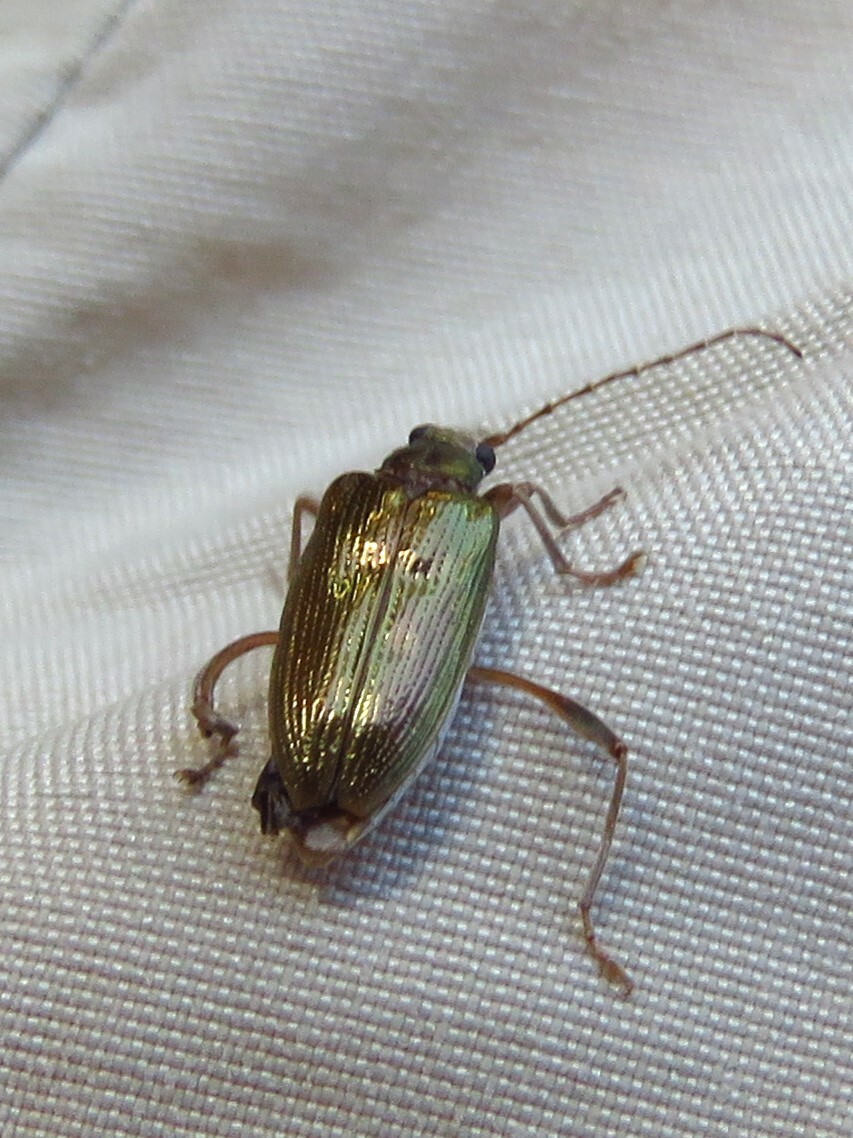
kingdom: Animalia
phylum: Arthropoda
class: Insecta
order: Coleoptera
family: Chrysomelidae
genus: Donacia
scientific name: Donacia
